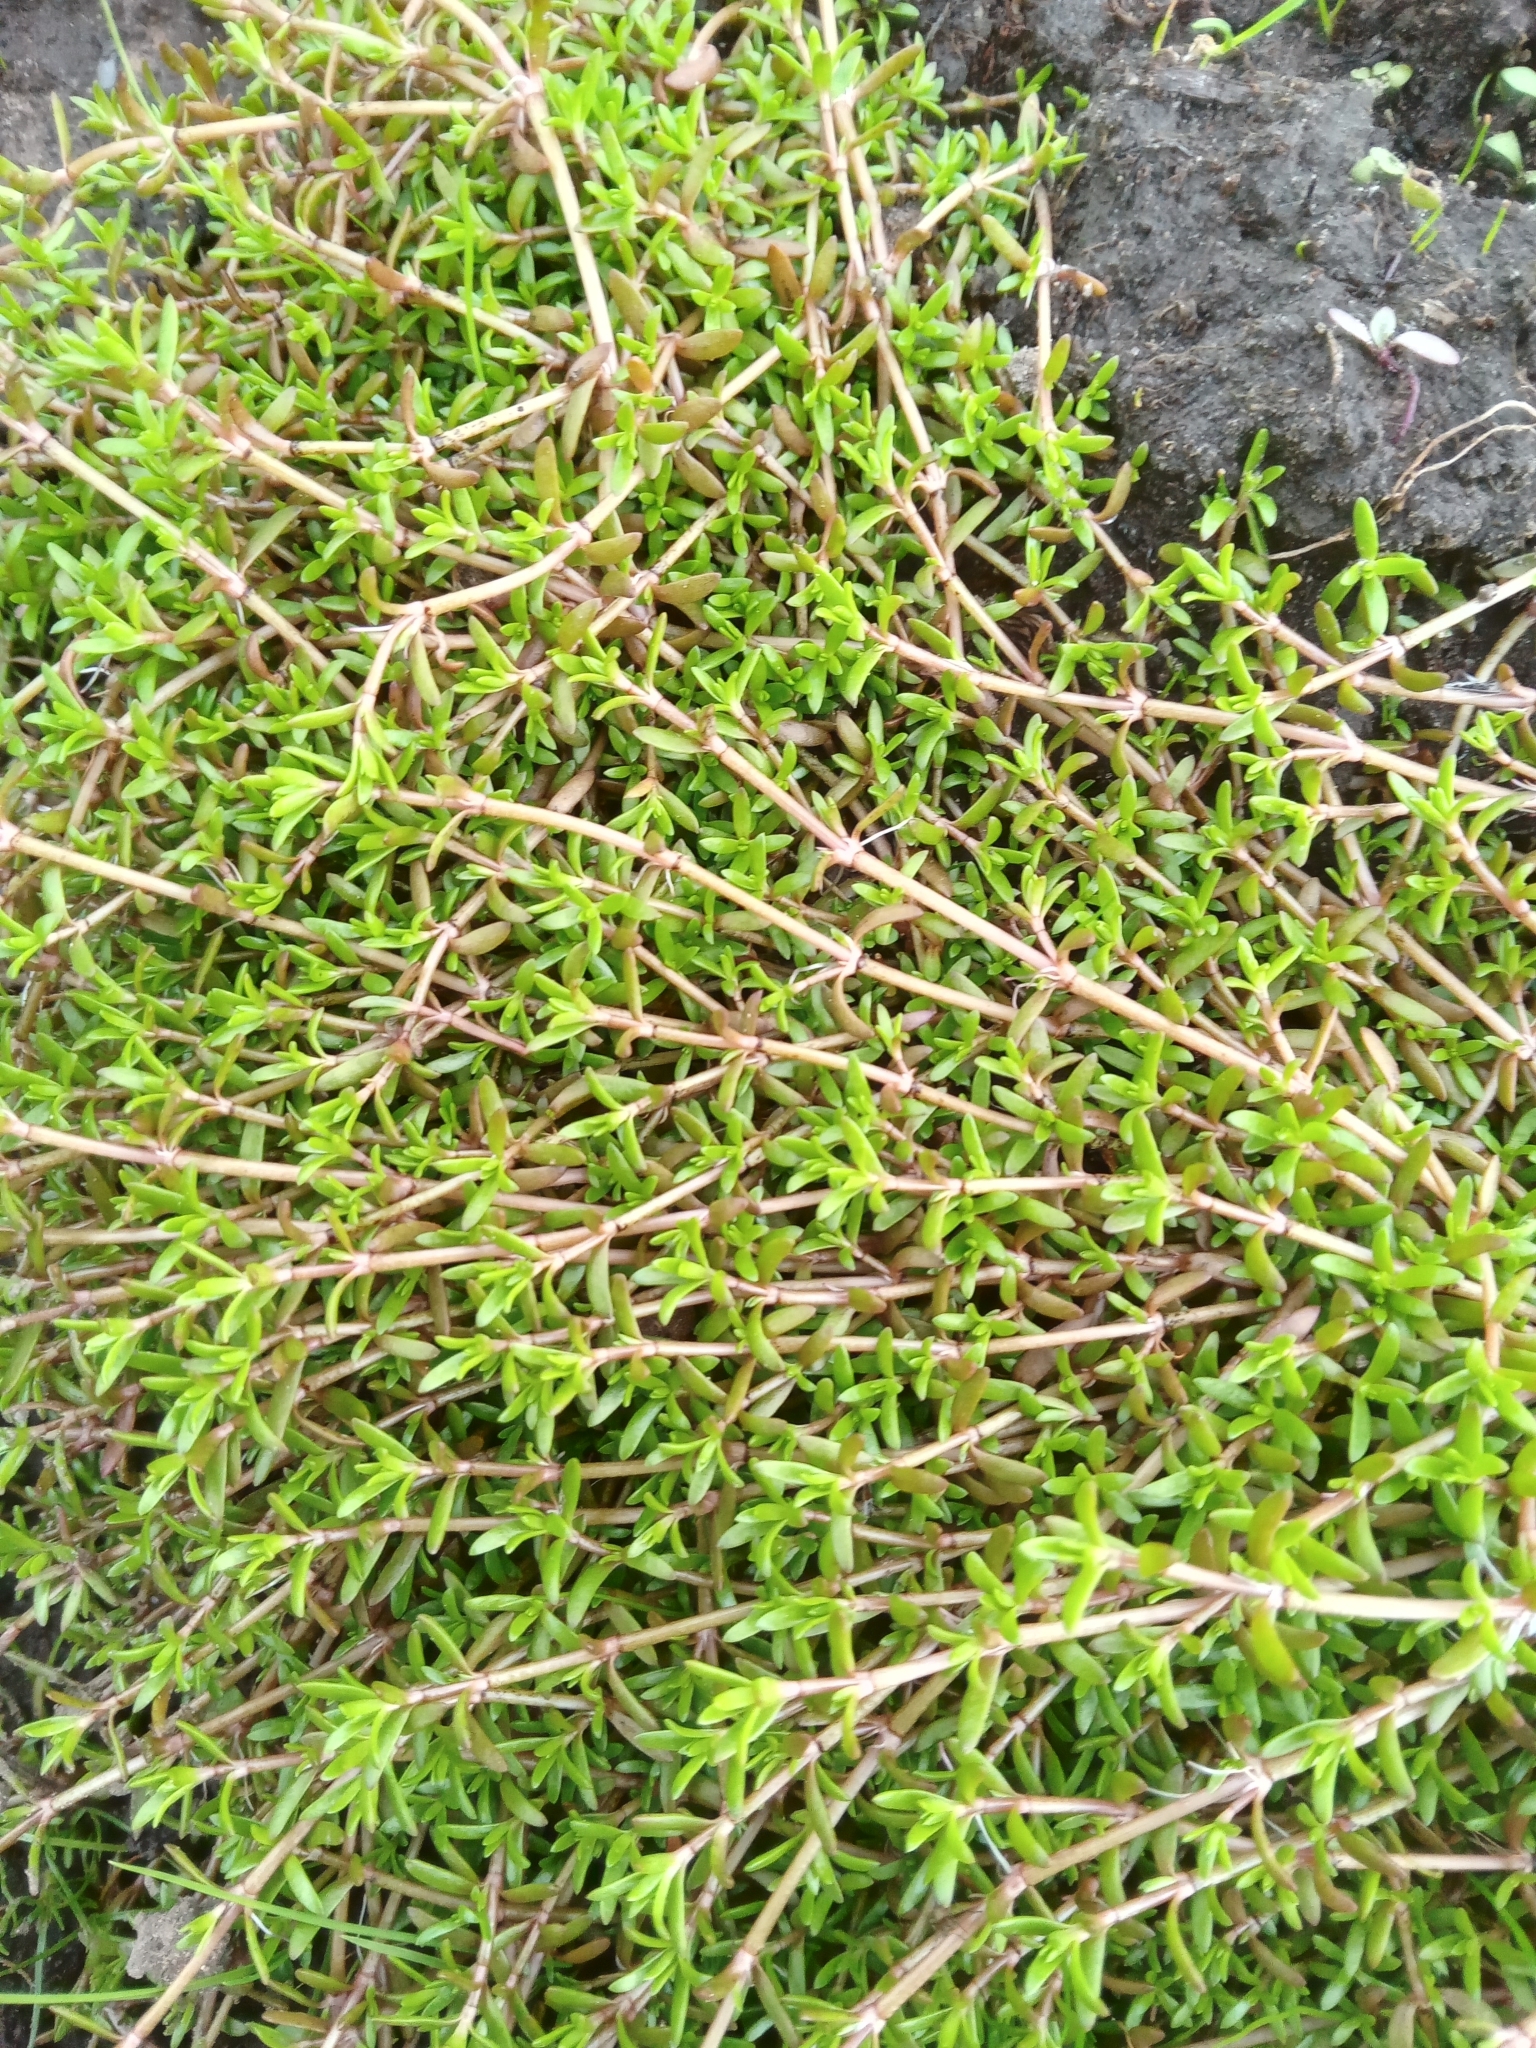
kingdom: Plantae
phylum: Tracheophyta
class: Magnoliopsida
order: Saxifragales
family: Crassulaceae
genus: Crassula
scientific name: Crassula helmsii
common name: New zealand pigmyweed
